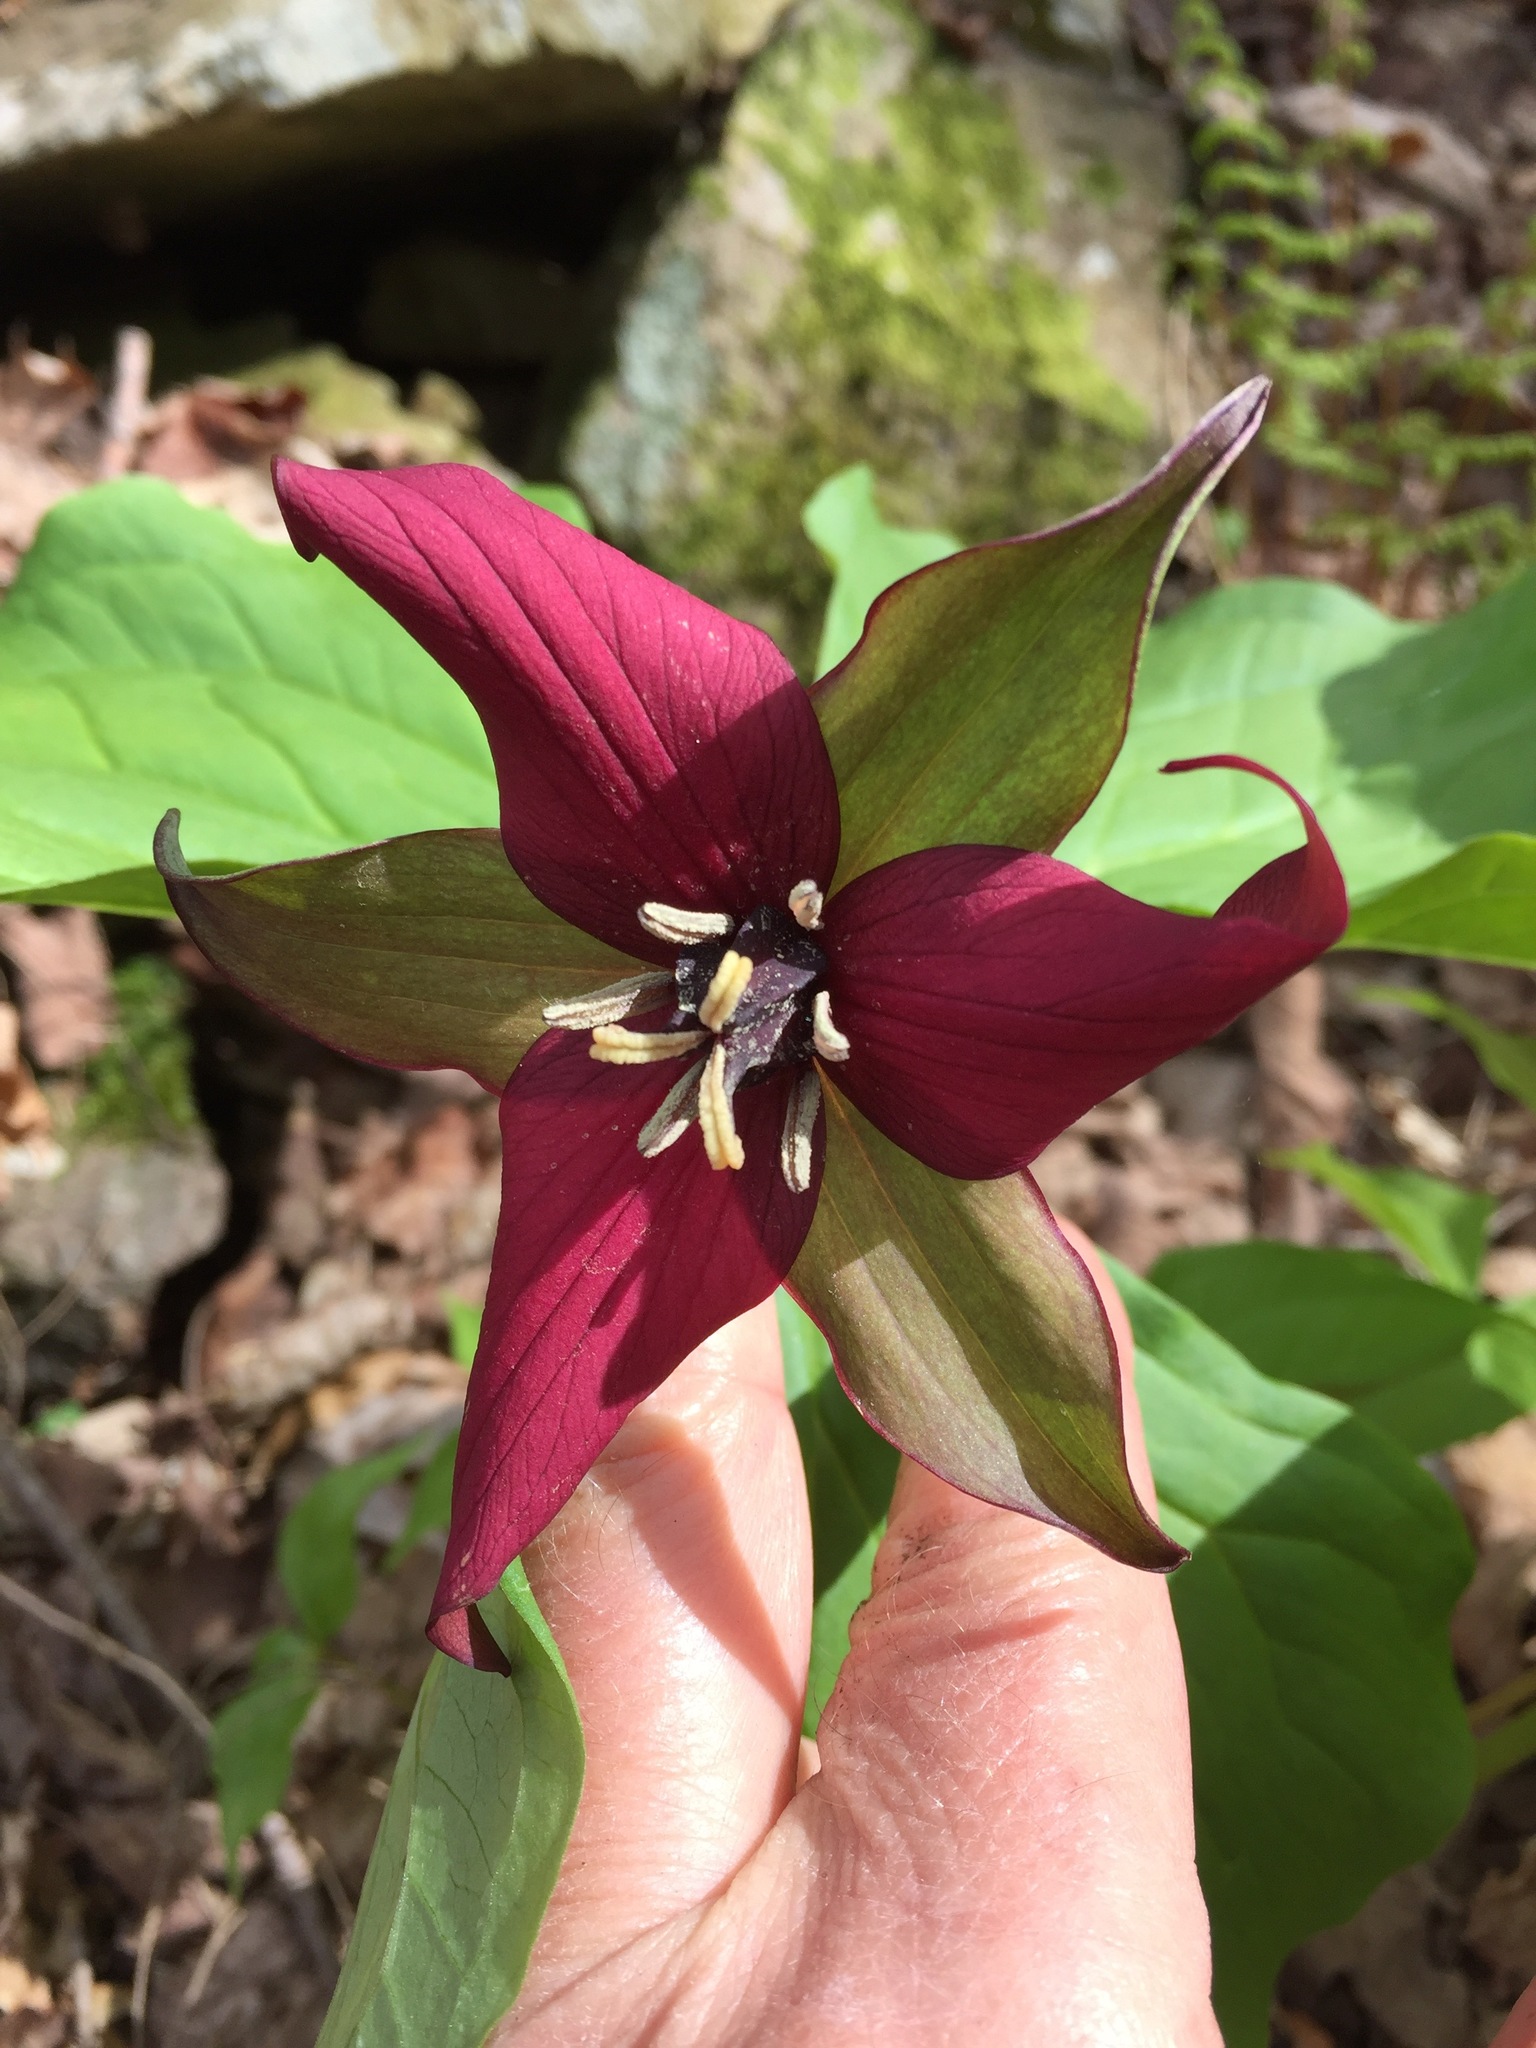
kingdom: Plantae
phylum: Tracheophyta
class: Liliopsida
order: Liliales
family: Melanthiaceae
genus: Trillium
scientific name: Trillium erectum
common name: Purple trillium
